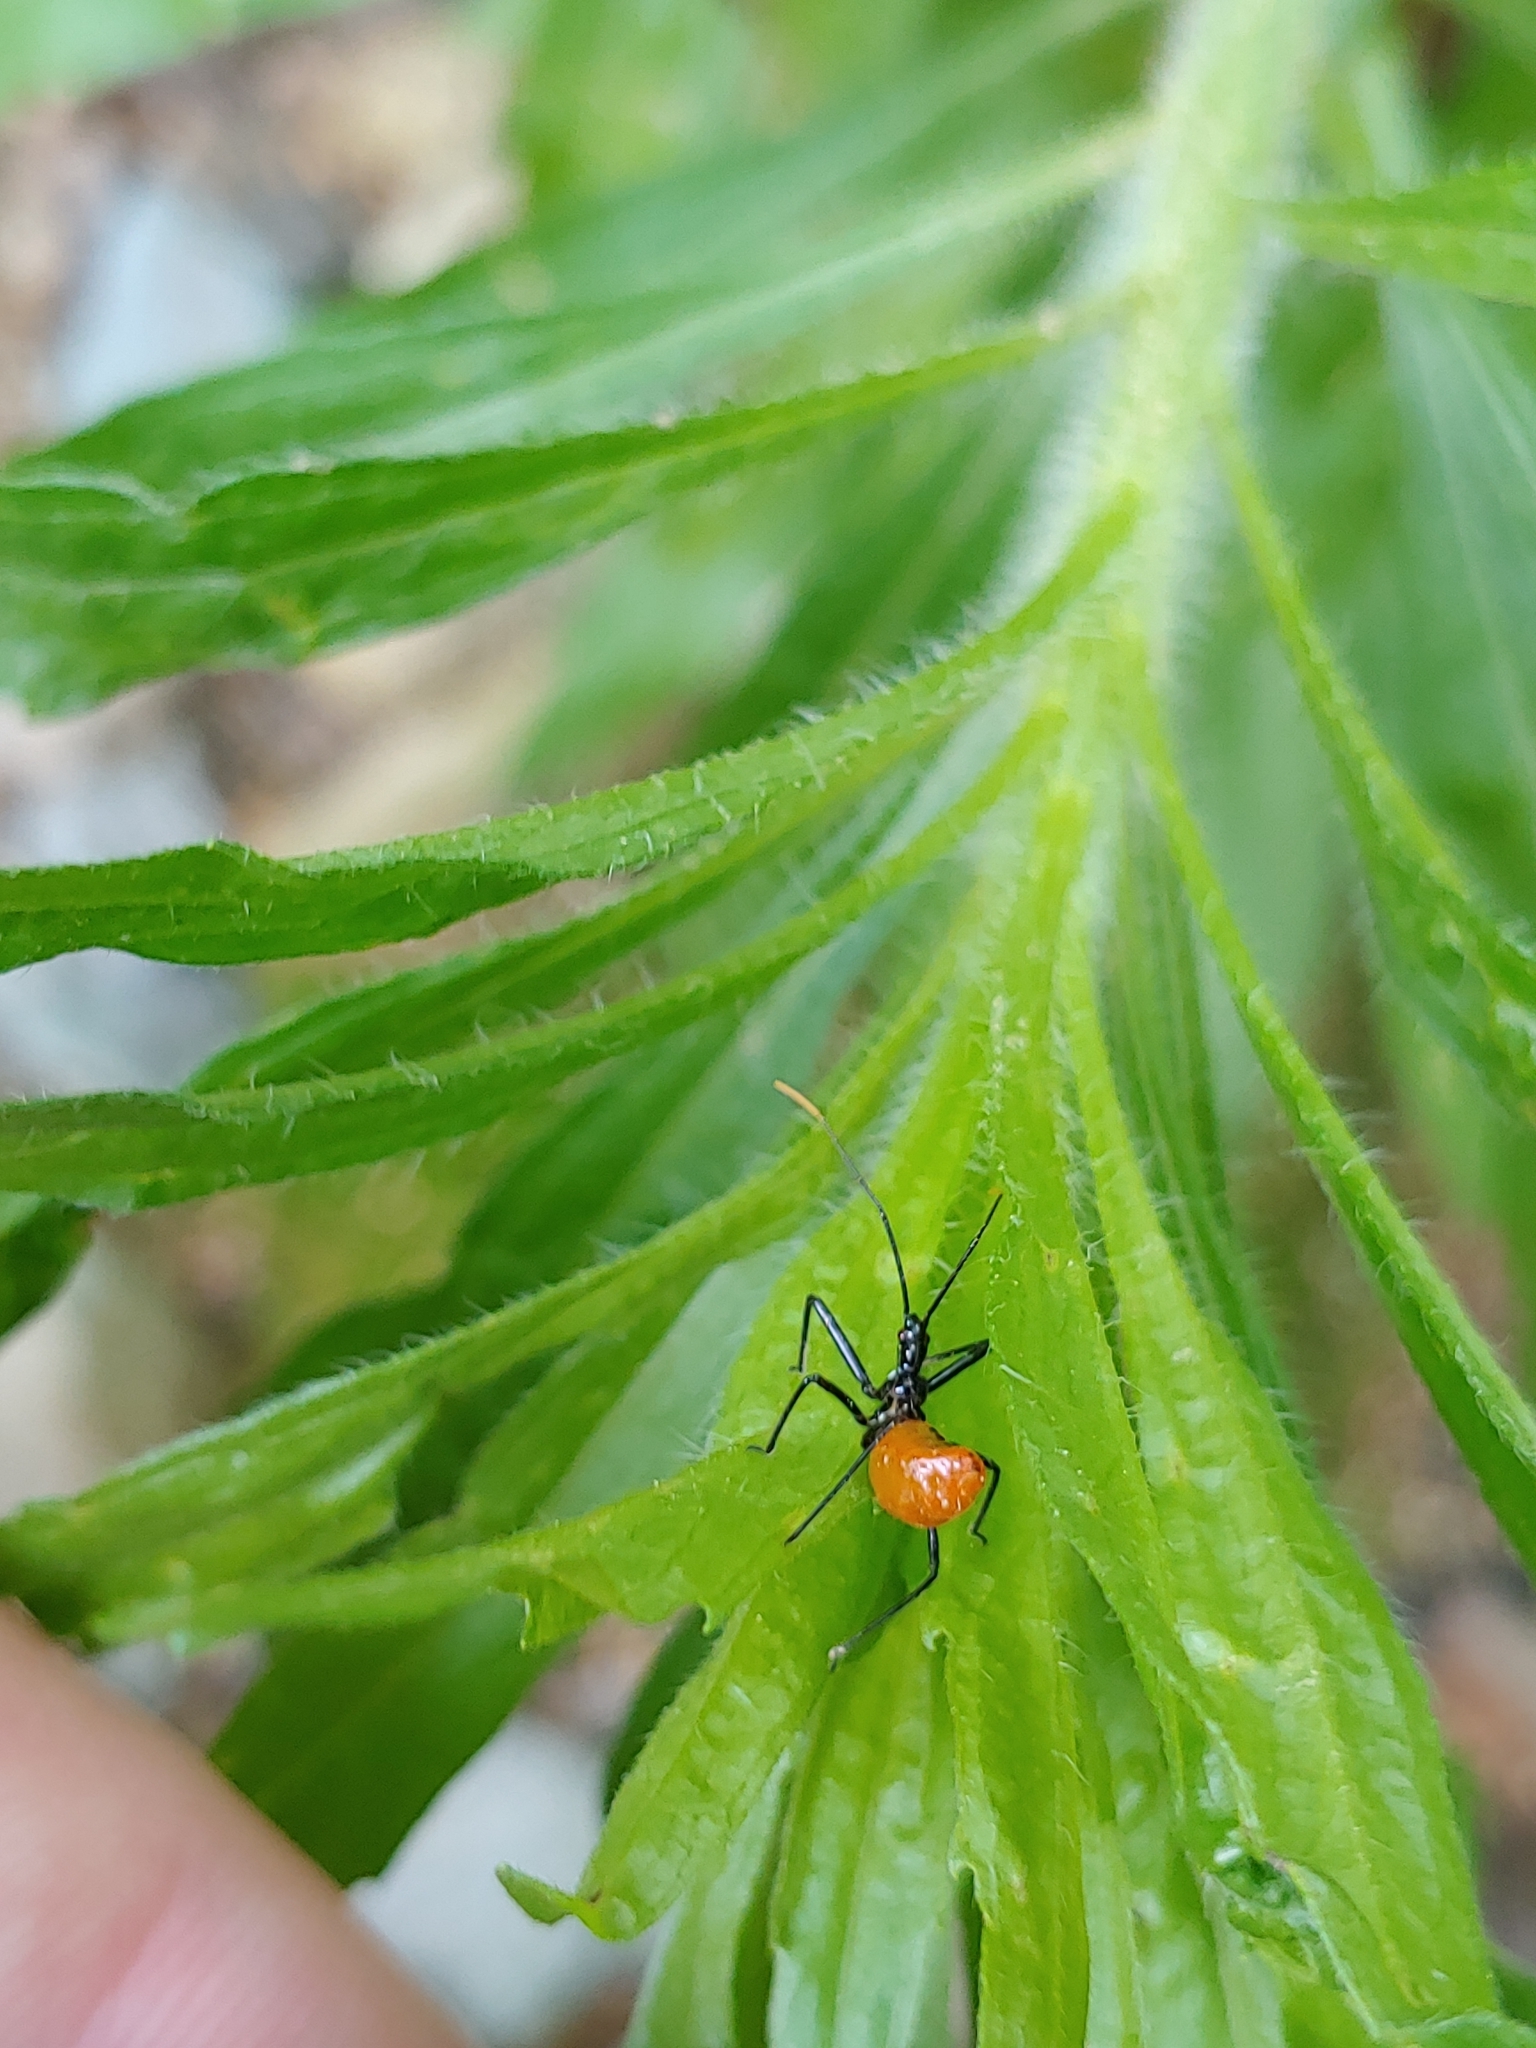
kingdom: Animalia
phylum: Arthropoda
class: Insecta
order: Hemiptera
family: Reduviidae
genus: Arilus
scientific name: Arilus cristatus
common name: North american wheel bug
